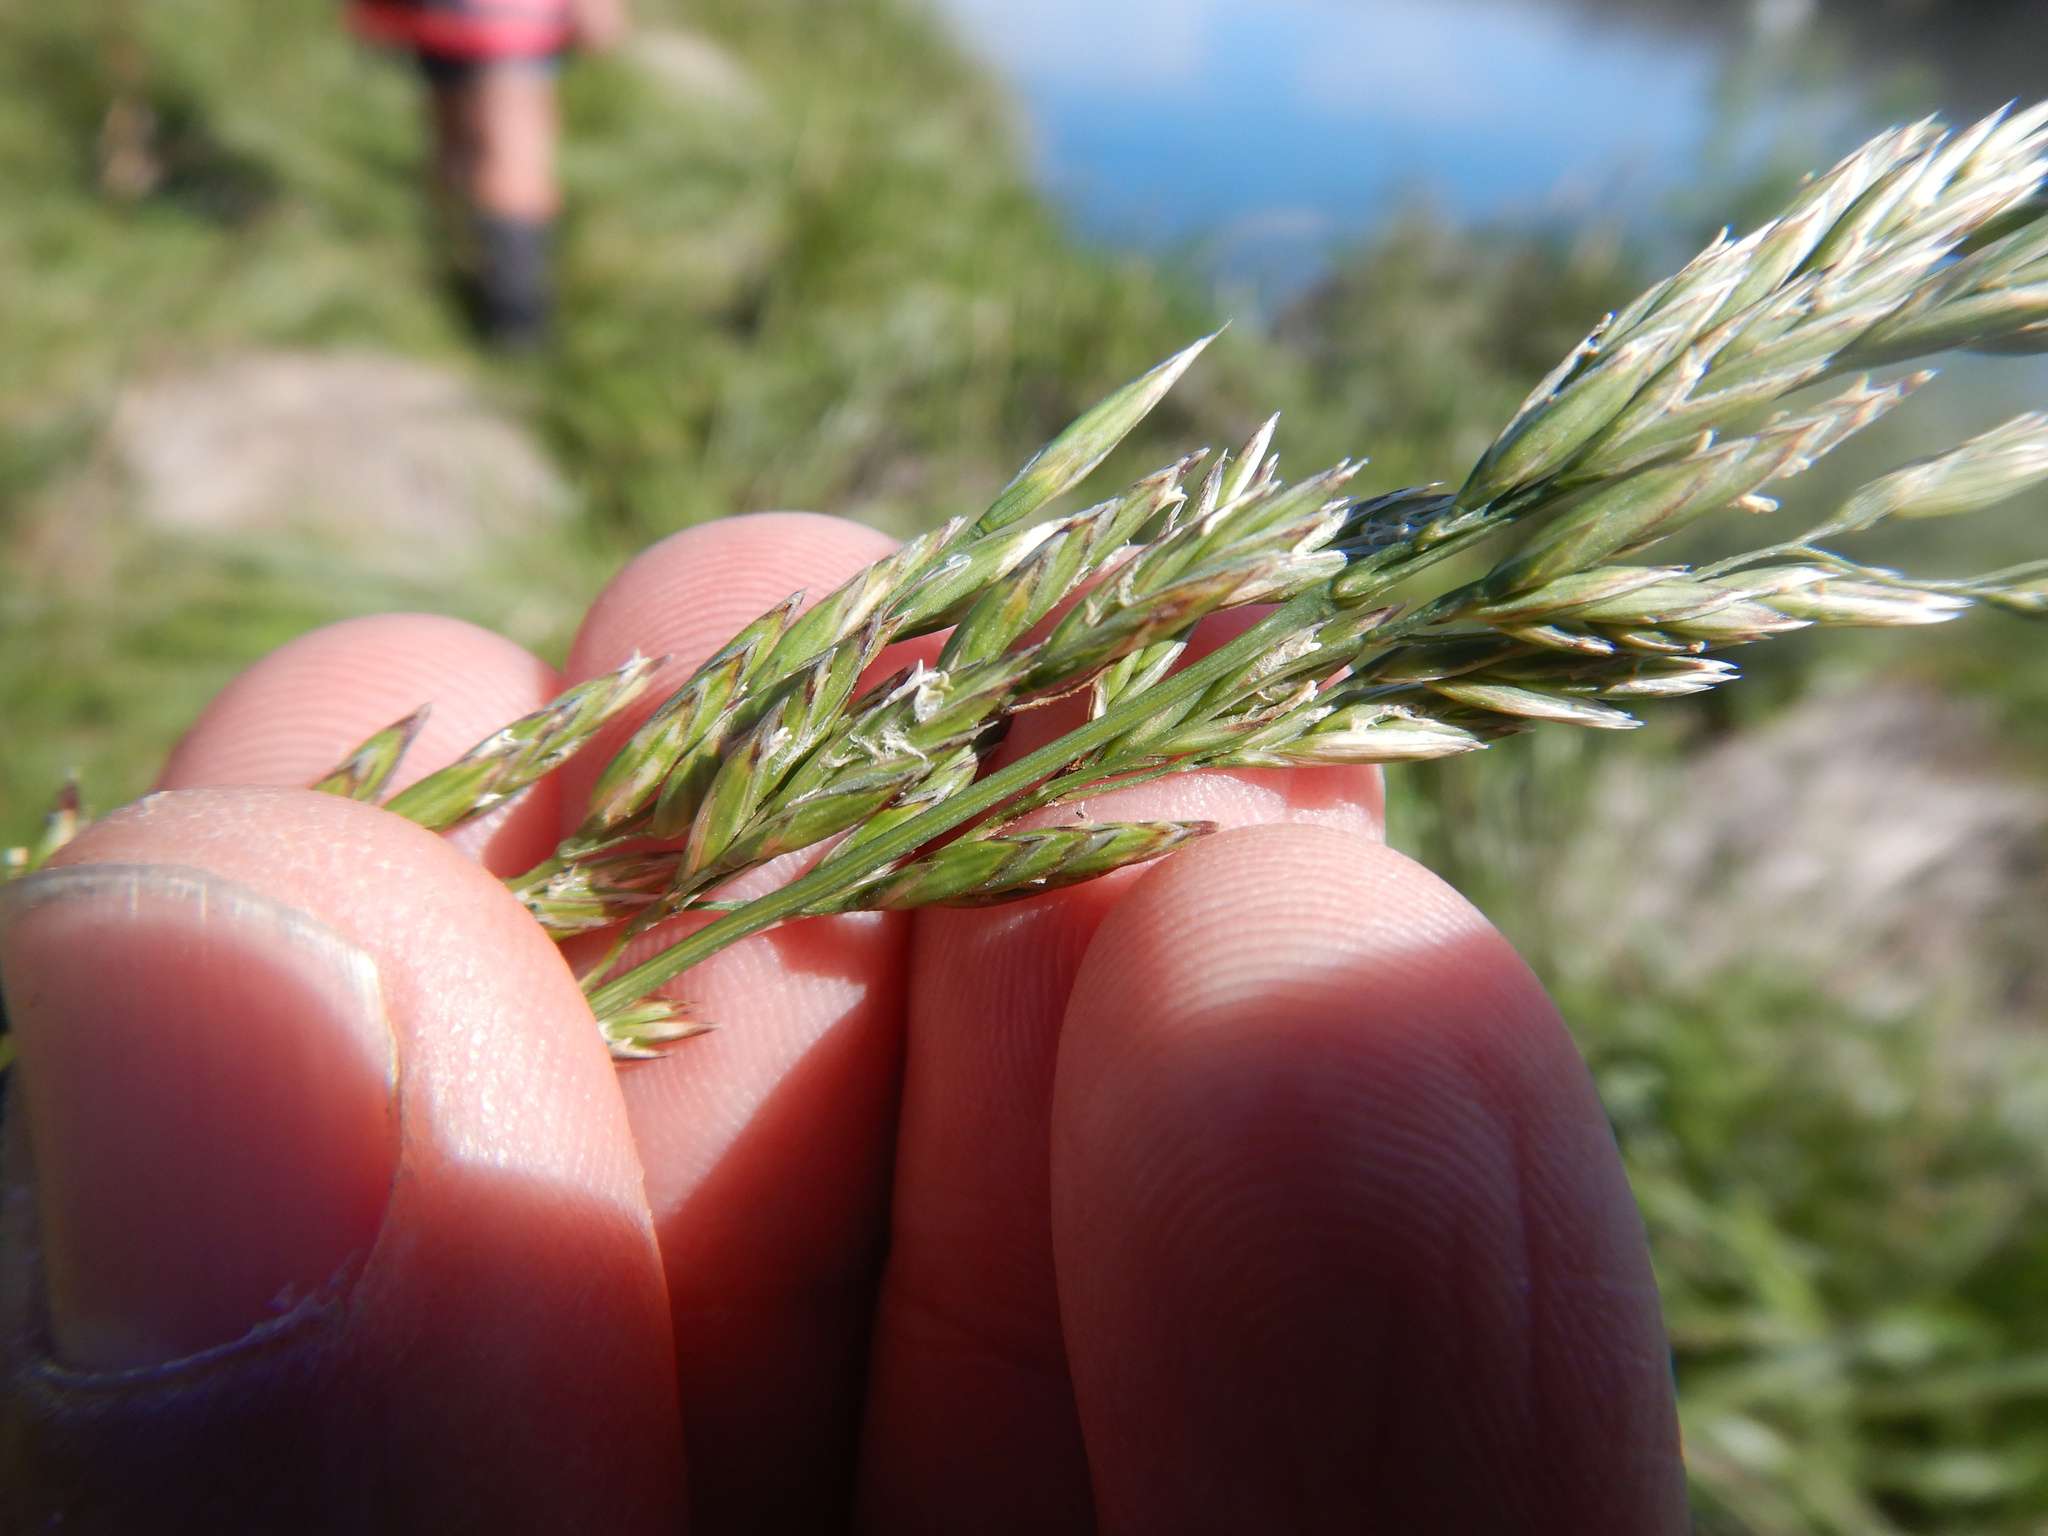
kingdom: Plantae
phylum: Tracheophyta
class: Liliopsida
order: Poales
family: Poaceae
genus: Lolium
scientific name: Lolium arundinaceum
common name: Reed fescue
